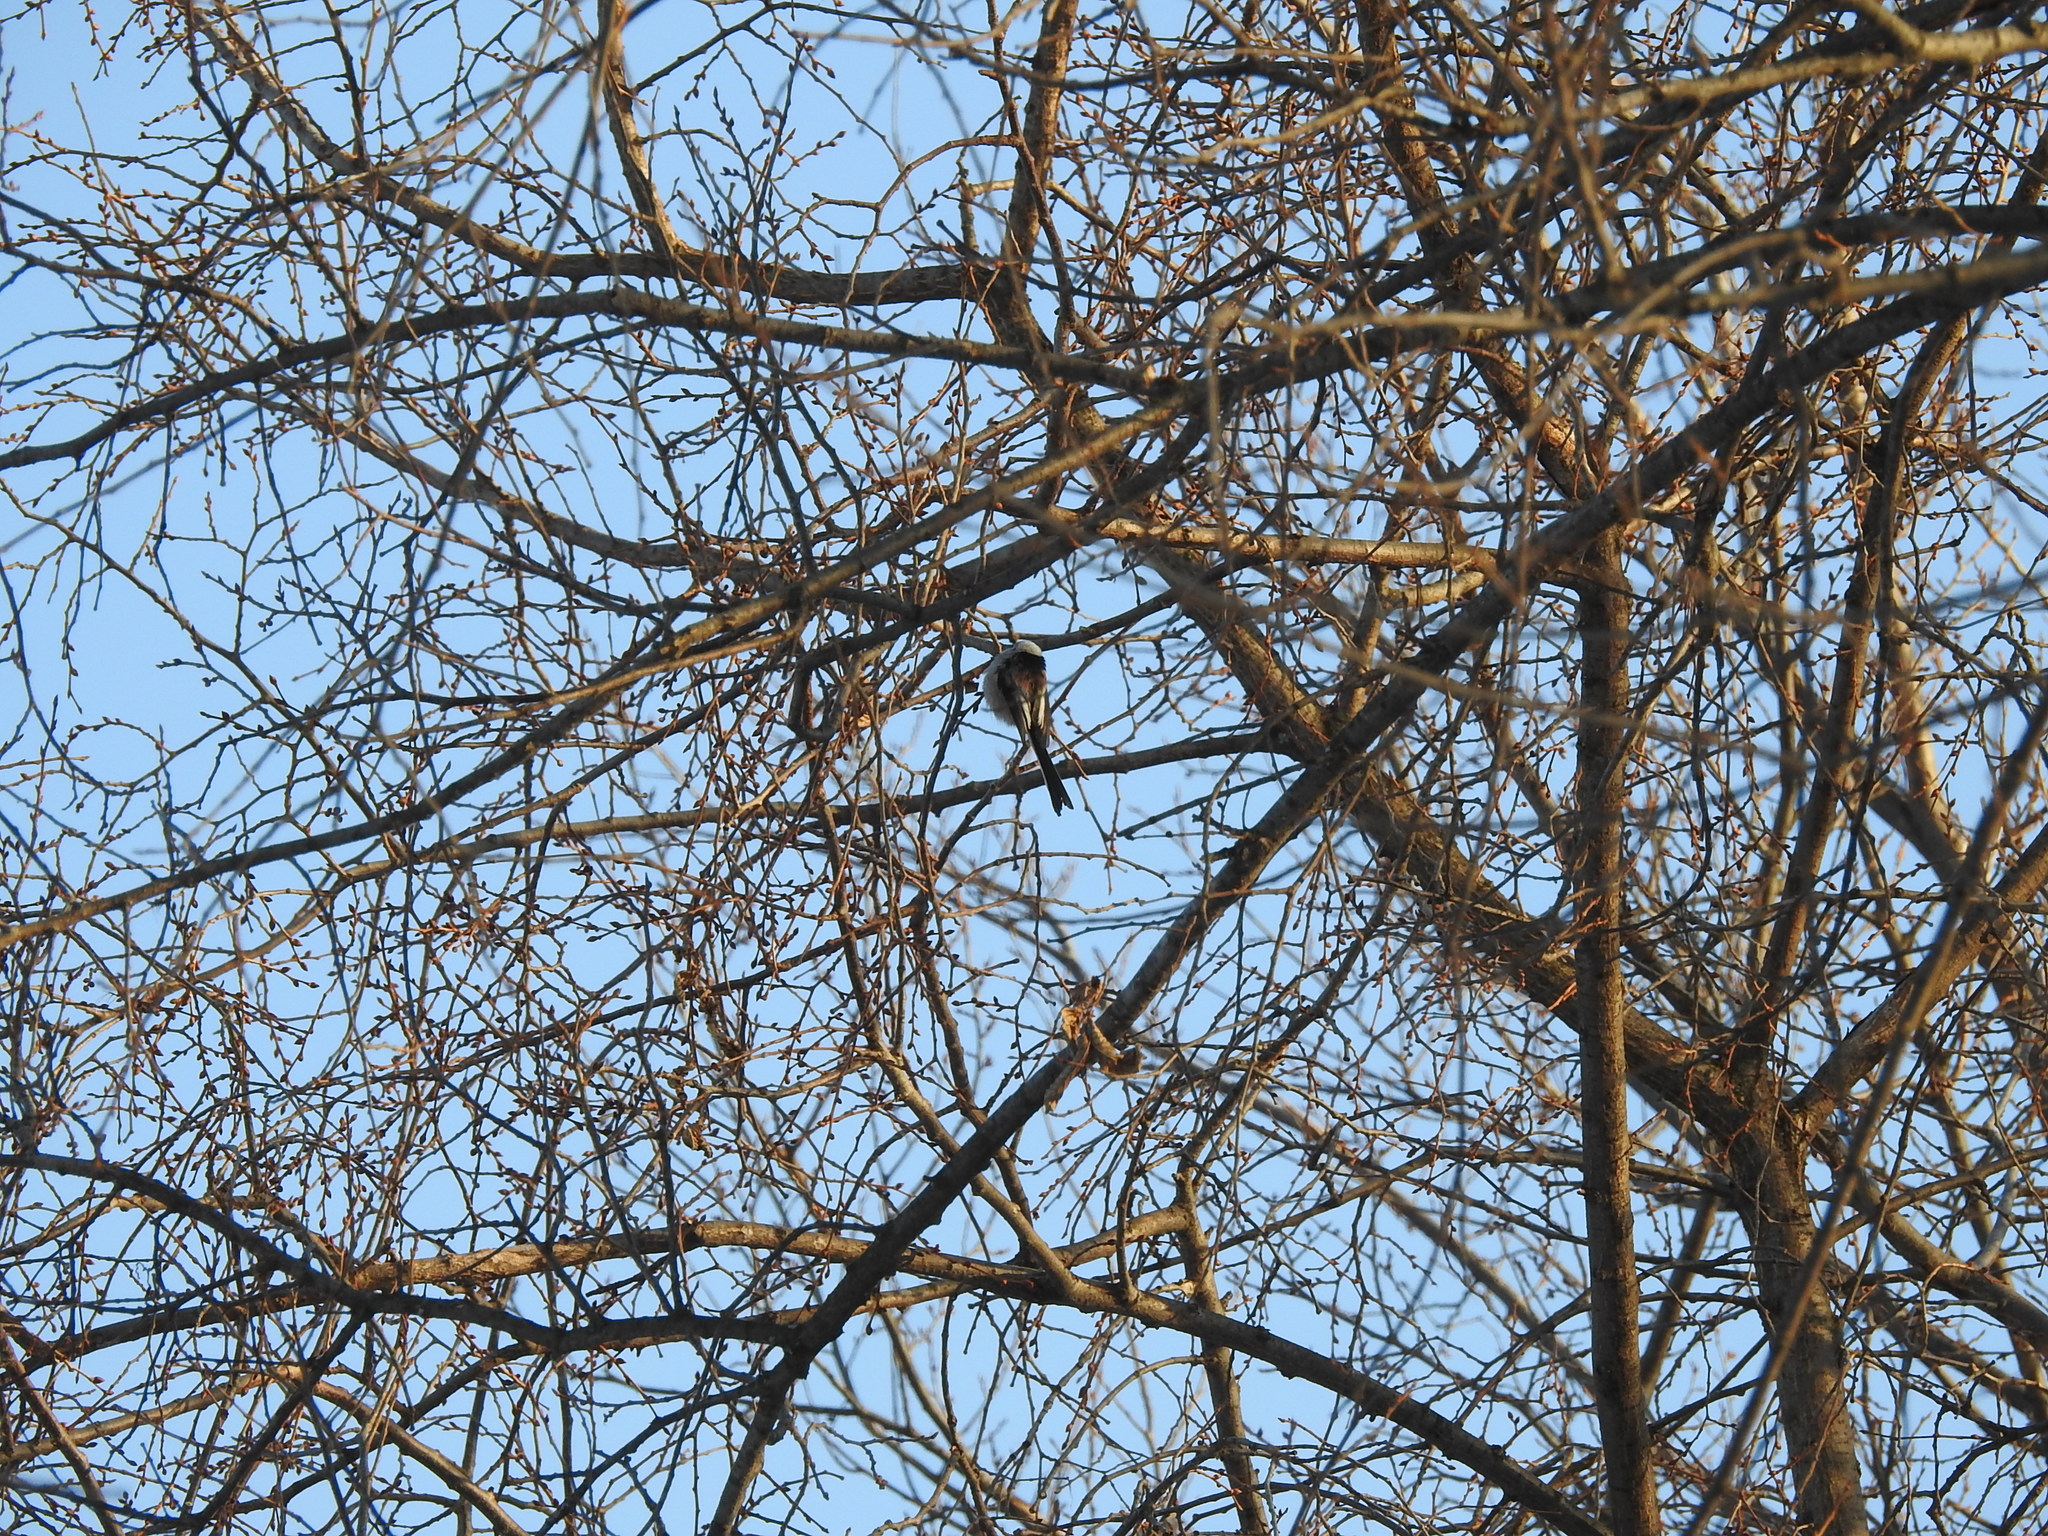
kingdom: Animalia
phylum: Chordata
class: Aves
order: Passeriformes
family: Aegithalidae
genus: Aegithalos
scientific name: Aegithalos caudatus
